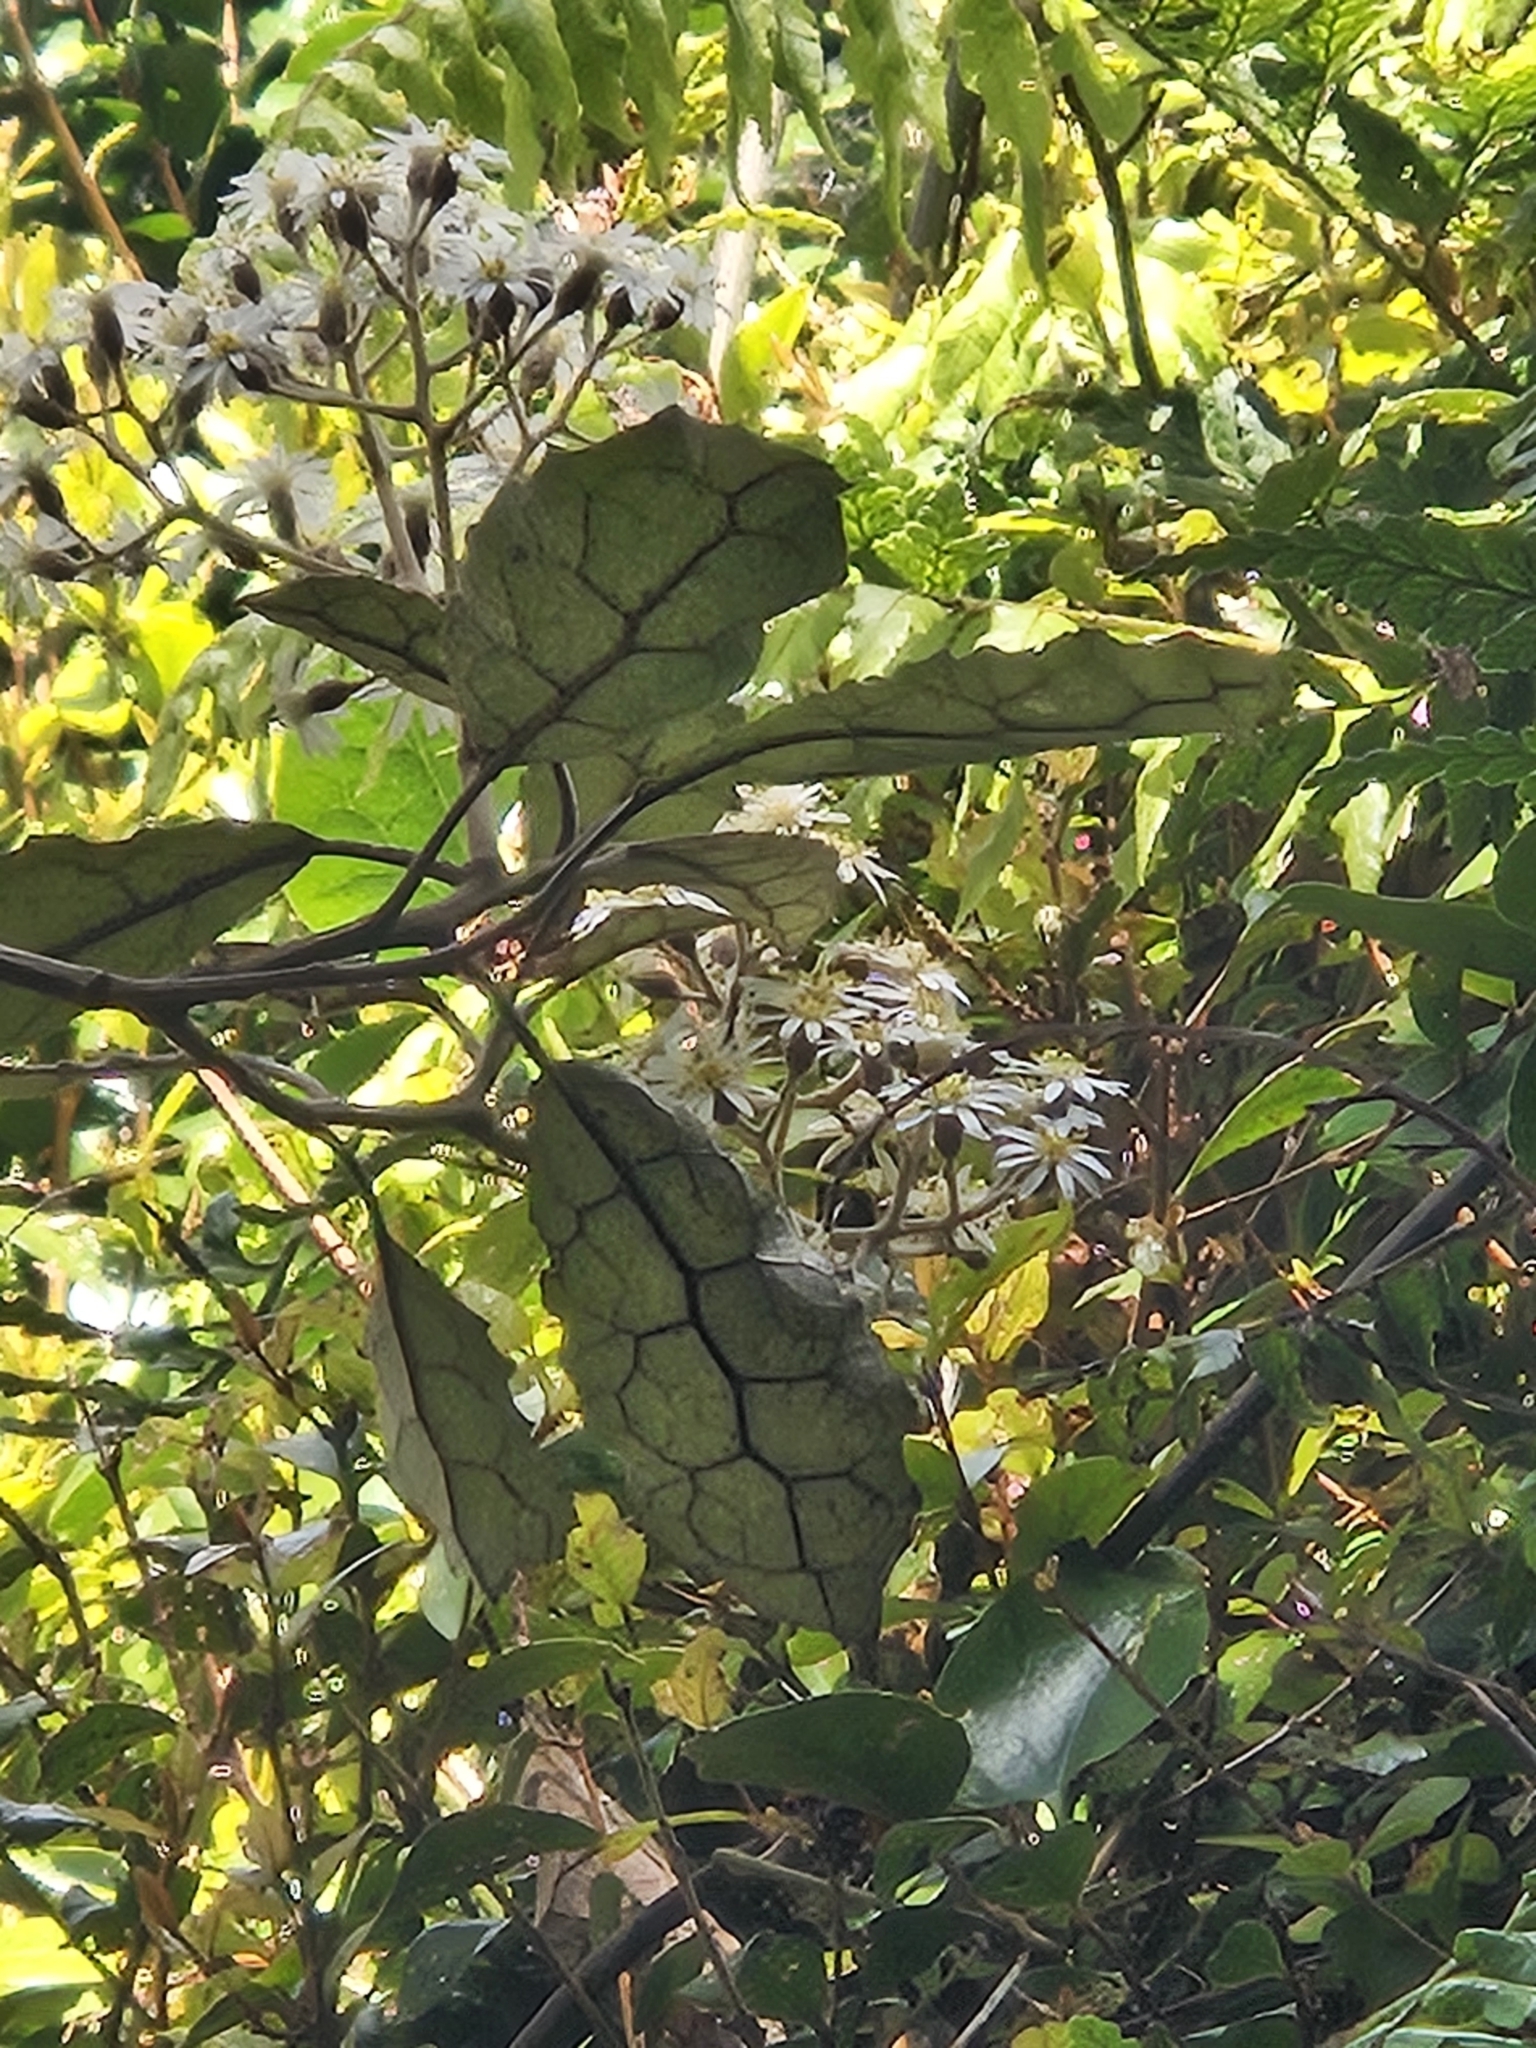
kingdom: Plantae
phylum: Tracheophyta
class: Magnoliopsida
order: Asterales
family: Asteraceae
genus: Olearia
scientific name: Olearia rani
